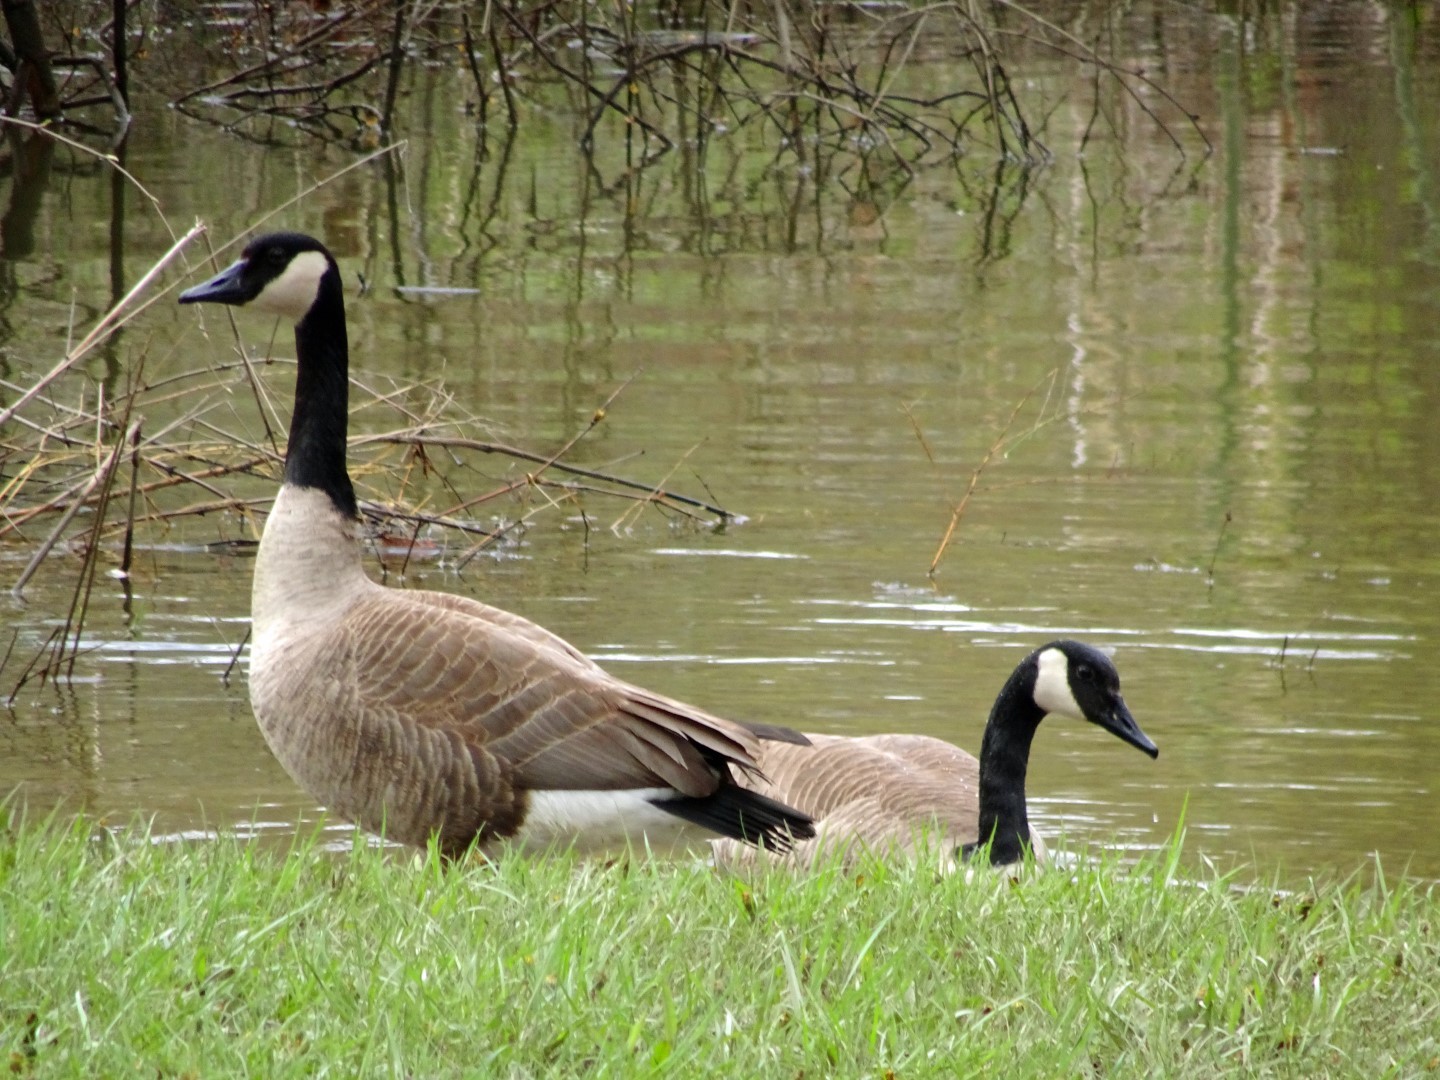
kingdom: Animalia
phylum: Chordata
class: Aves
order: Anseriformes
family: Anatidae
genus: Branta
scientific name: Branta canadensis
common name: Canada goose
